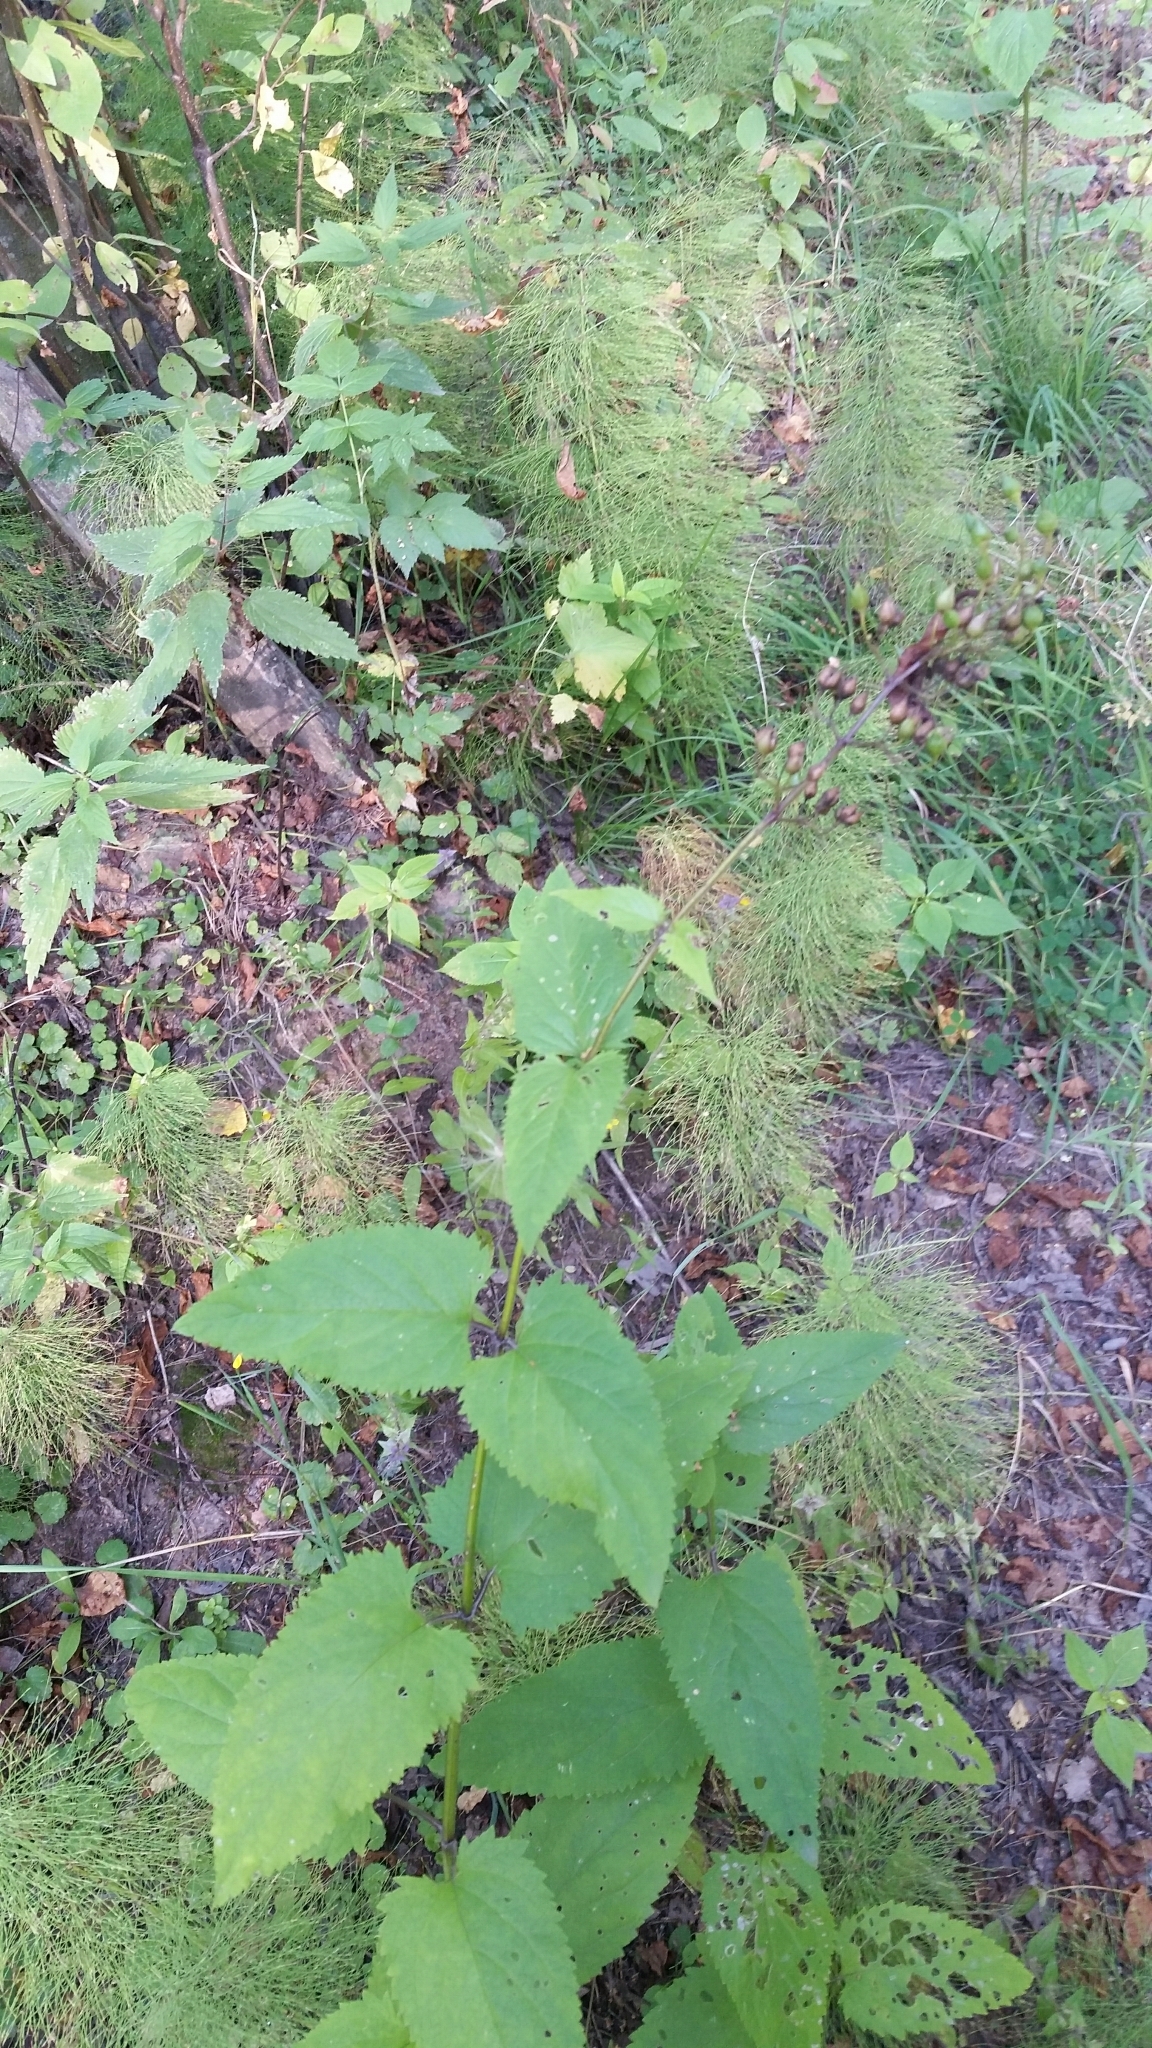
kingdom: Plantae
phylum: Tracheophyta
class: Magnoliopsida
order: Lamiales
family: Scrophulariaceae
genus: Scrophularia
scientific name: Scrophularia nodosa
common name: Common figwort
